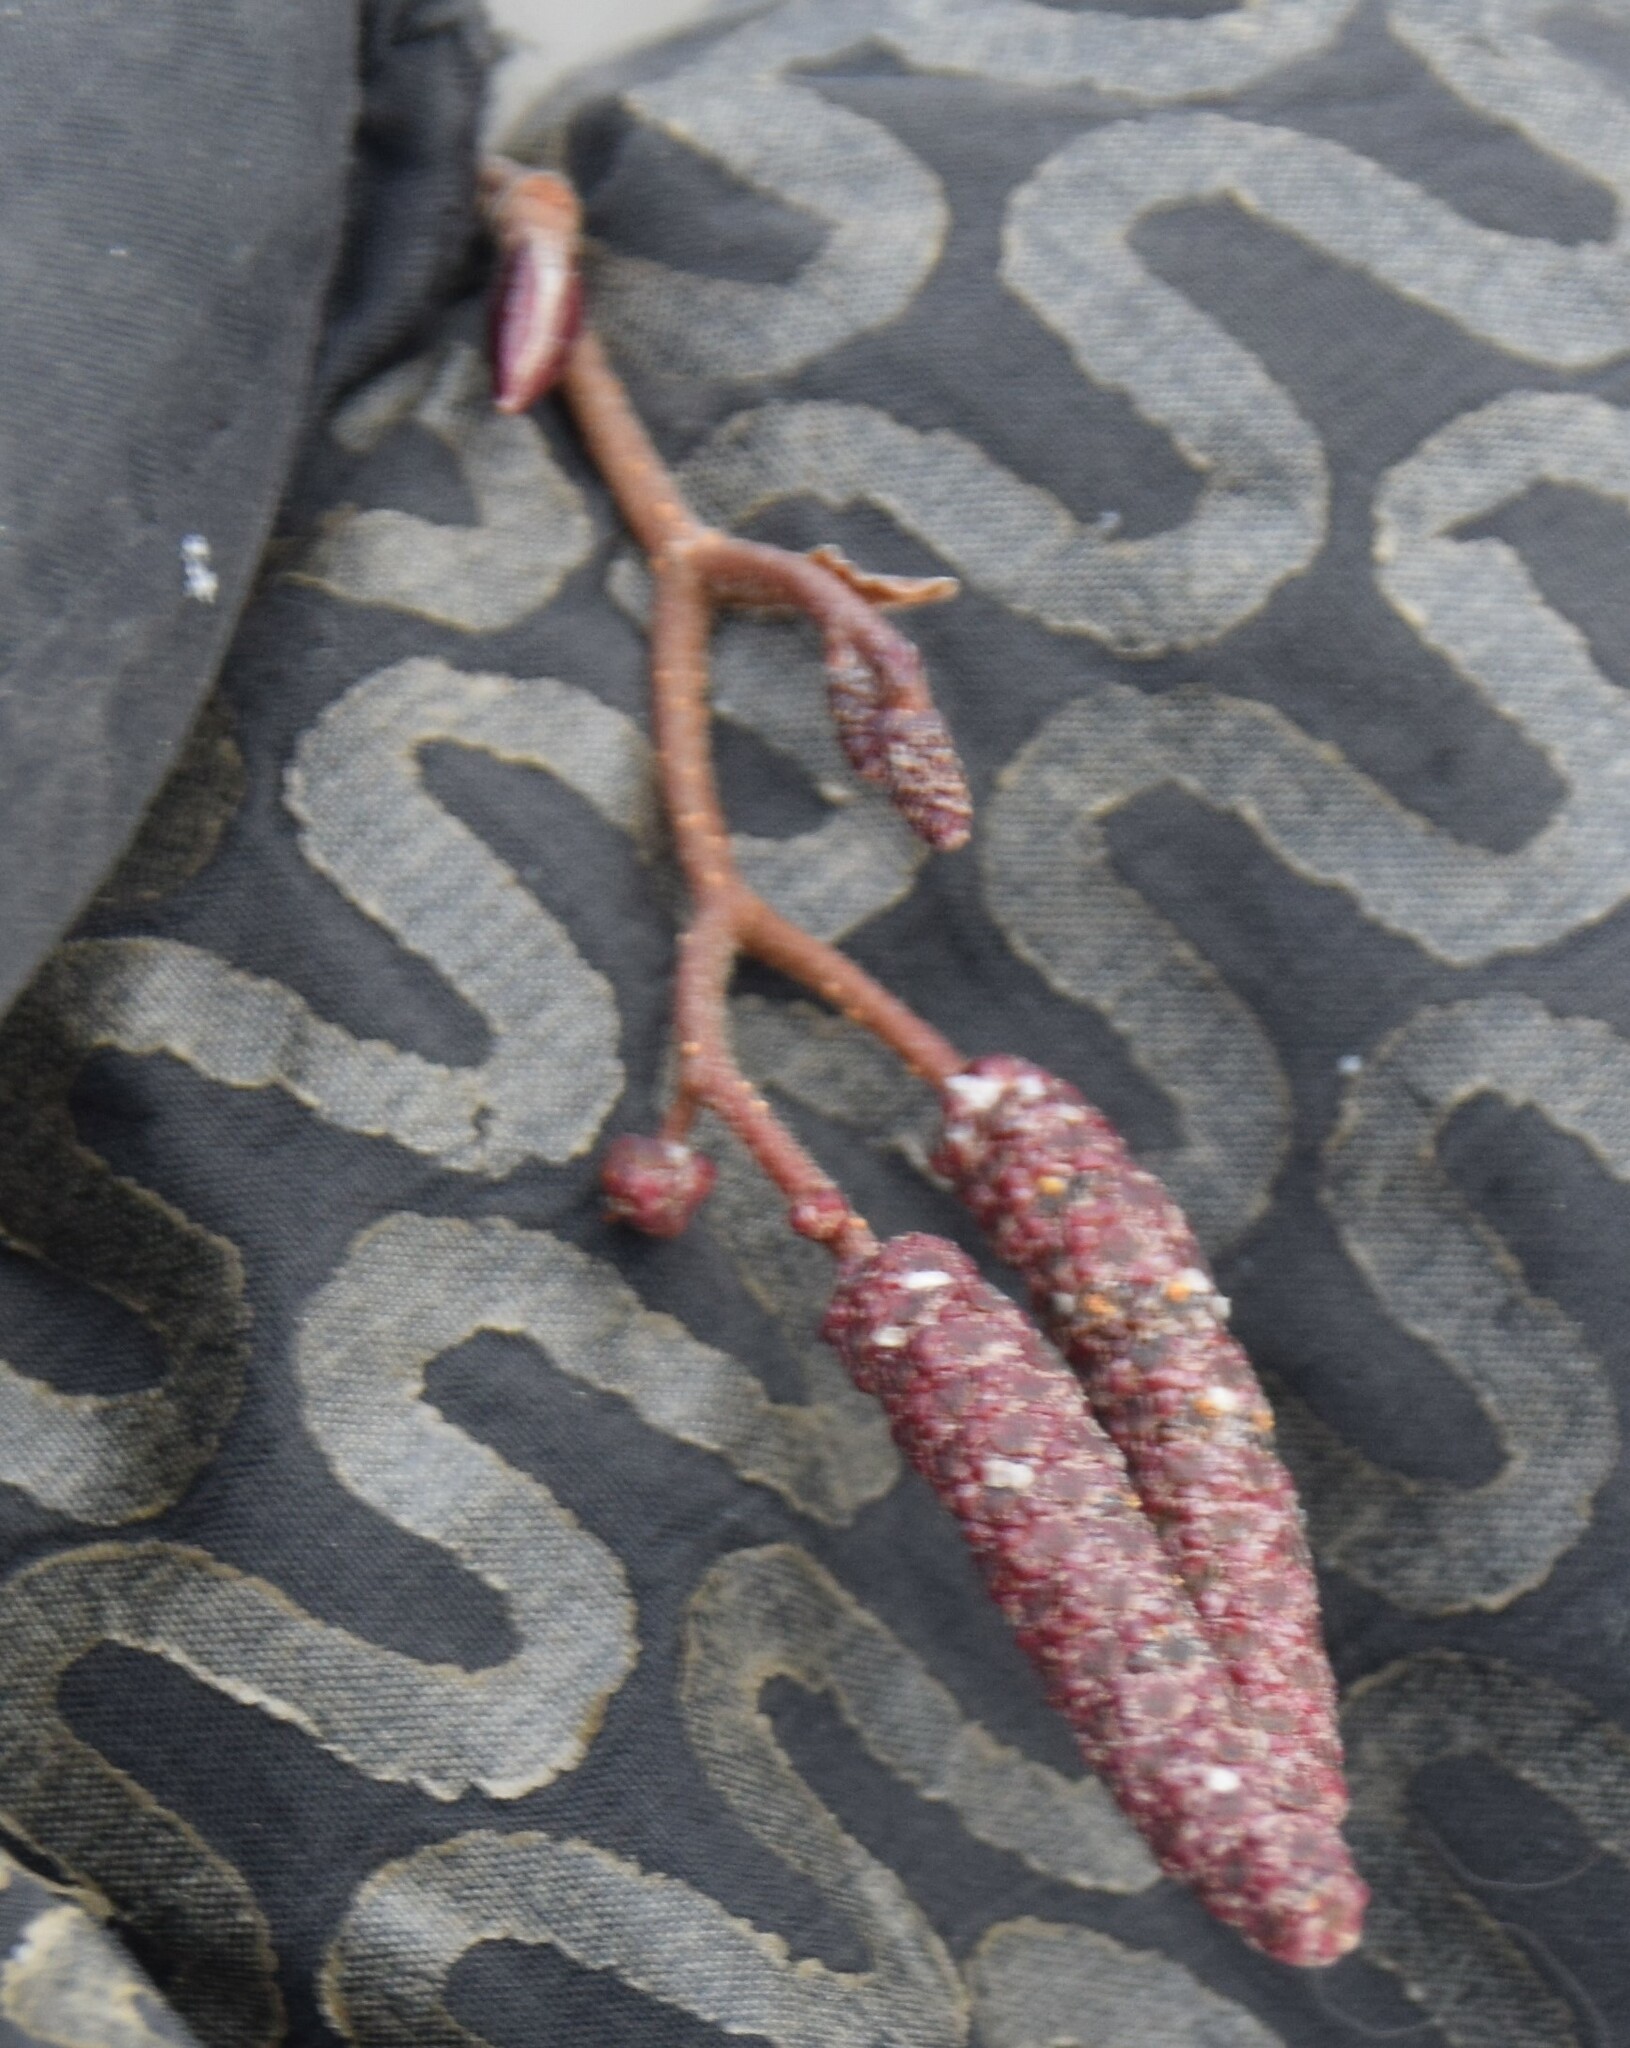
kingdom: Plantae
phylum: Tracheophyta
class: Magnoliopsida
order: Fagales
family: Betulaceae
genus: Alnus
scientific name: Alnus incana
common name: Grey alder
